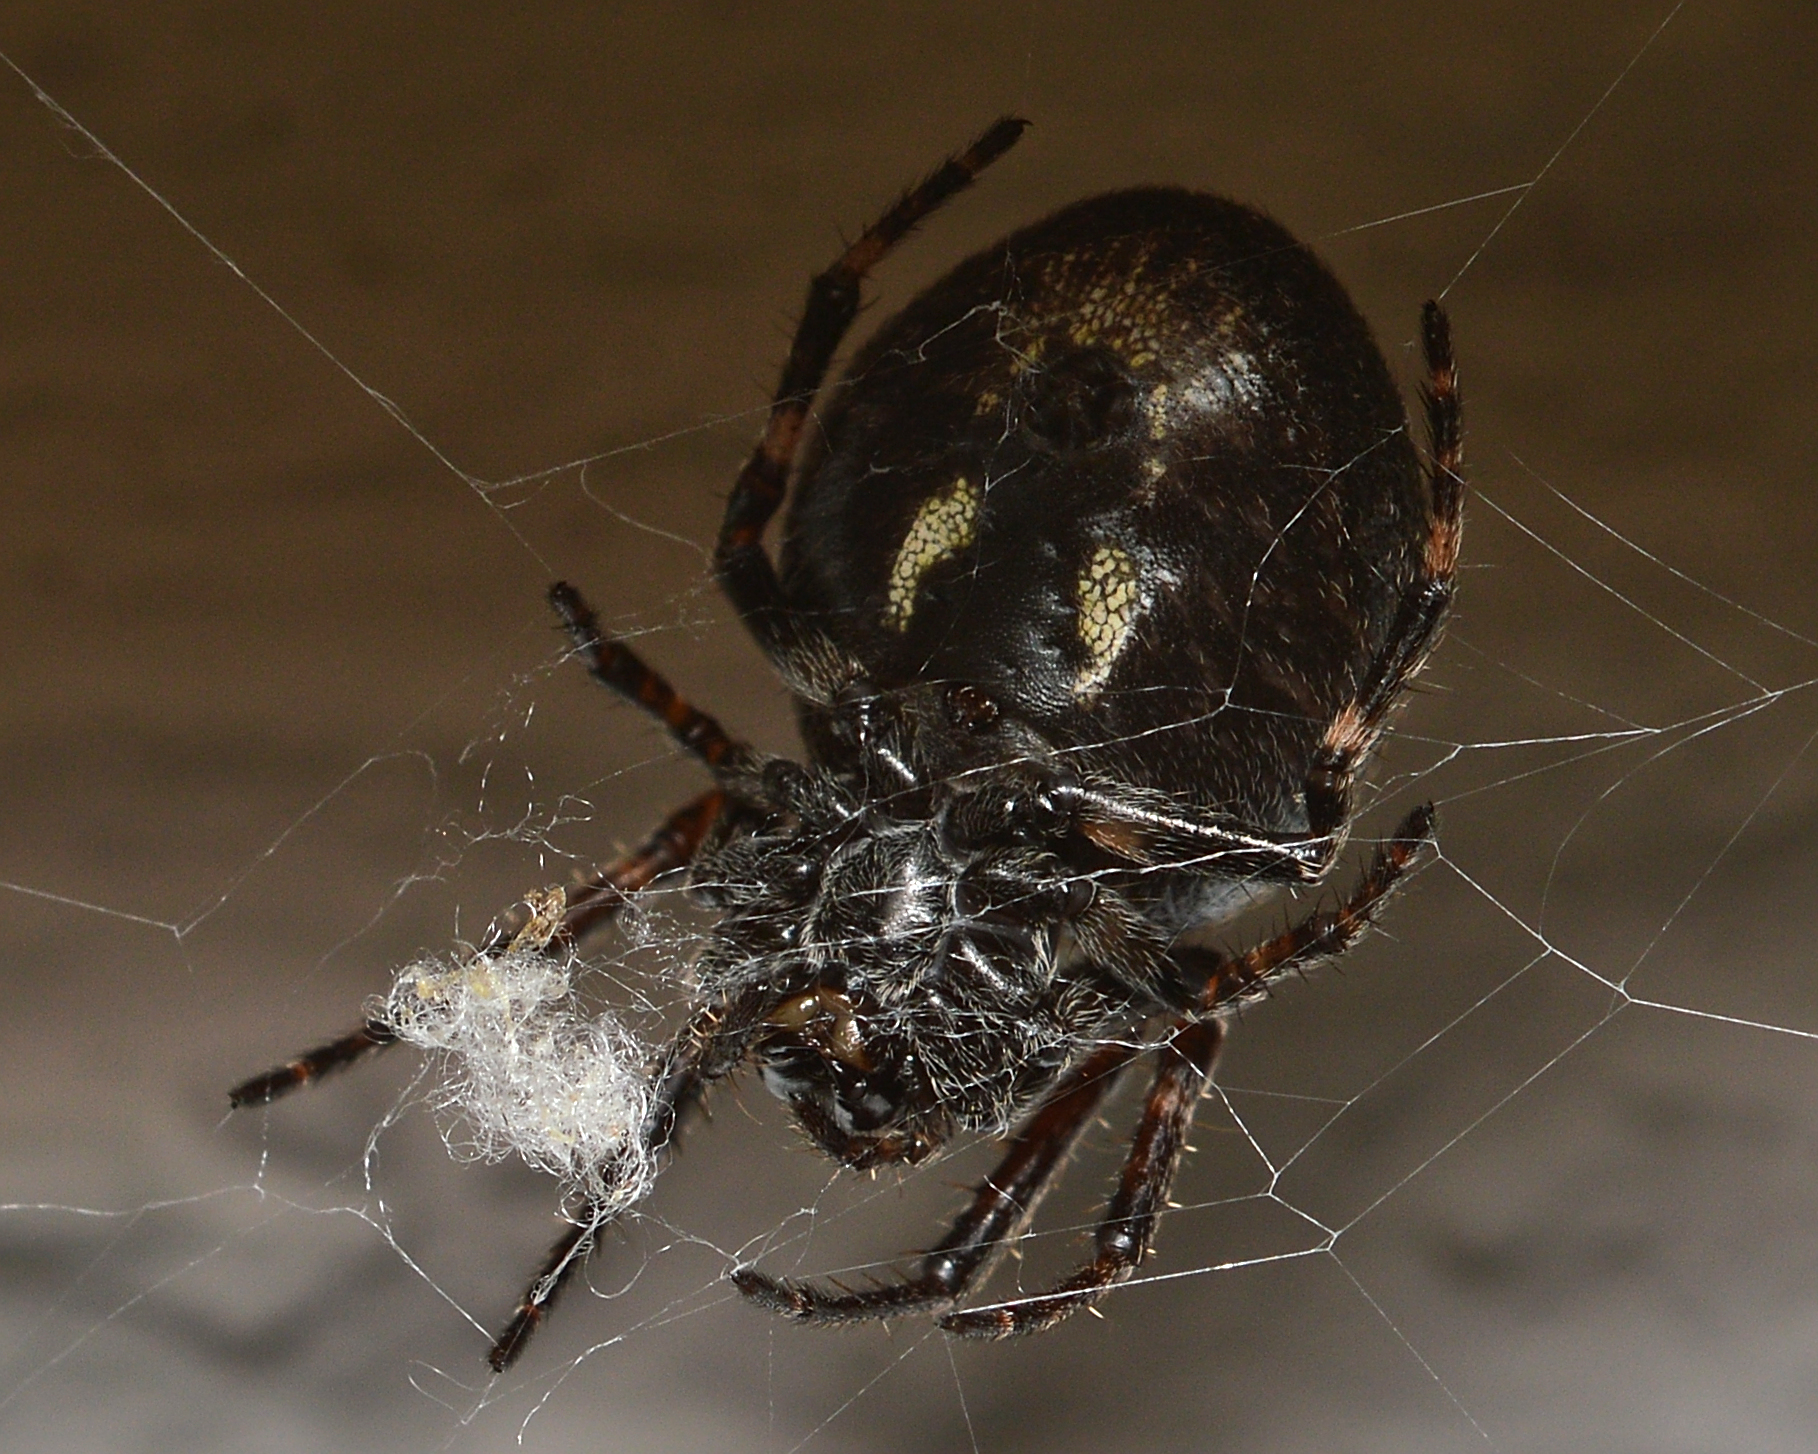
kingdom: Animalia
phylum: Arthropoda
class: Arachnida
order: Araneae
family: Araneidae
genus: Nuctenea
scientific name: Nuctenea umbratica
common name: Toad spider
